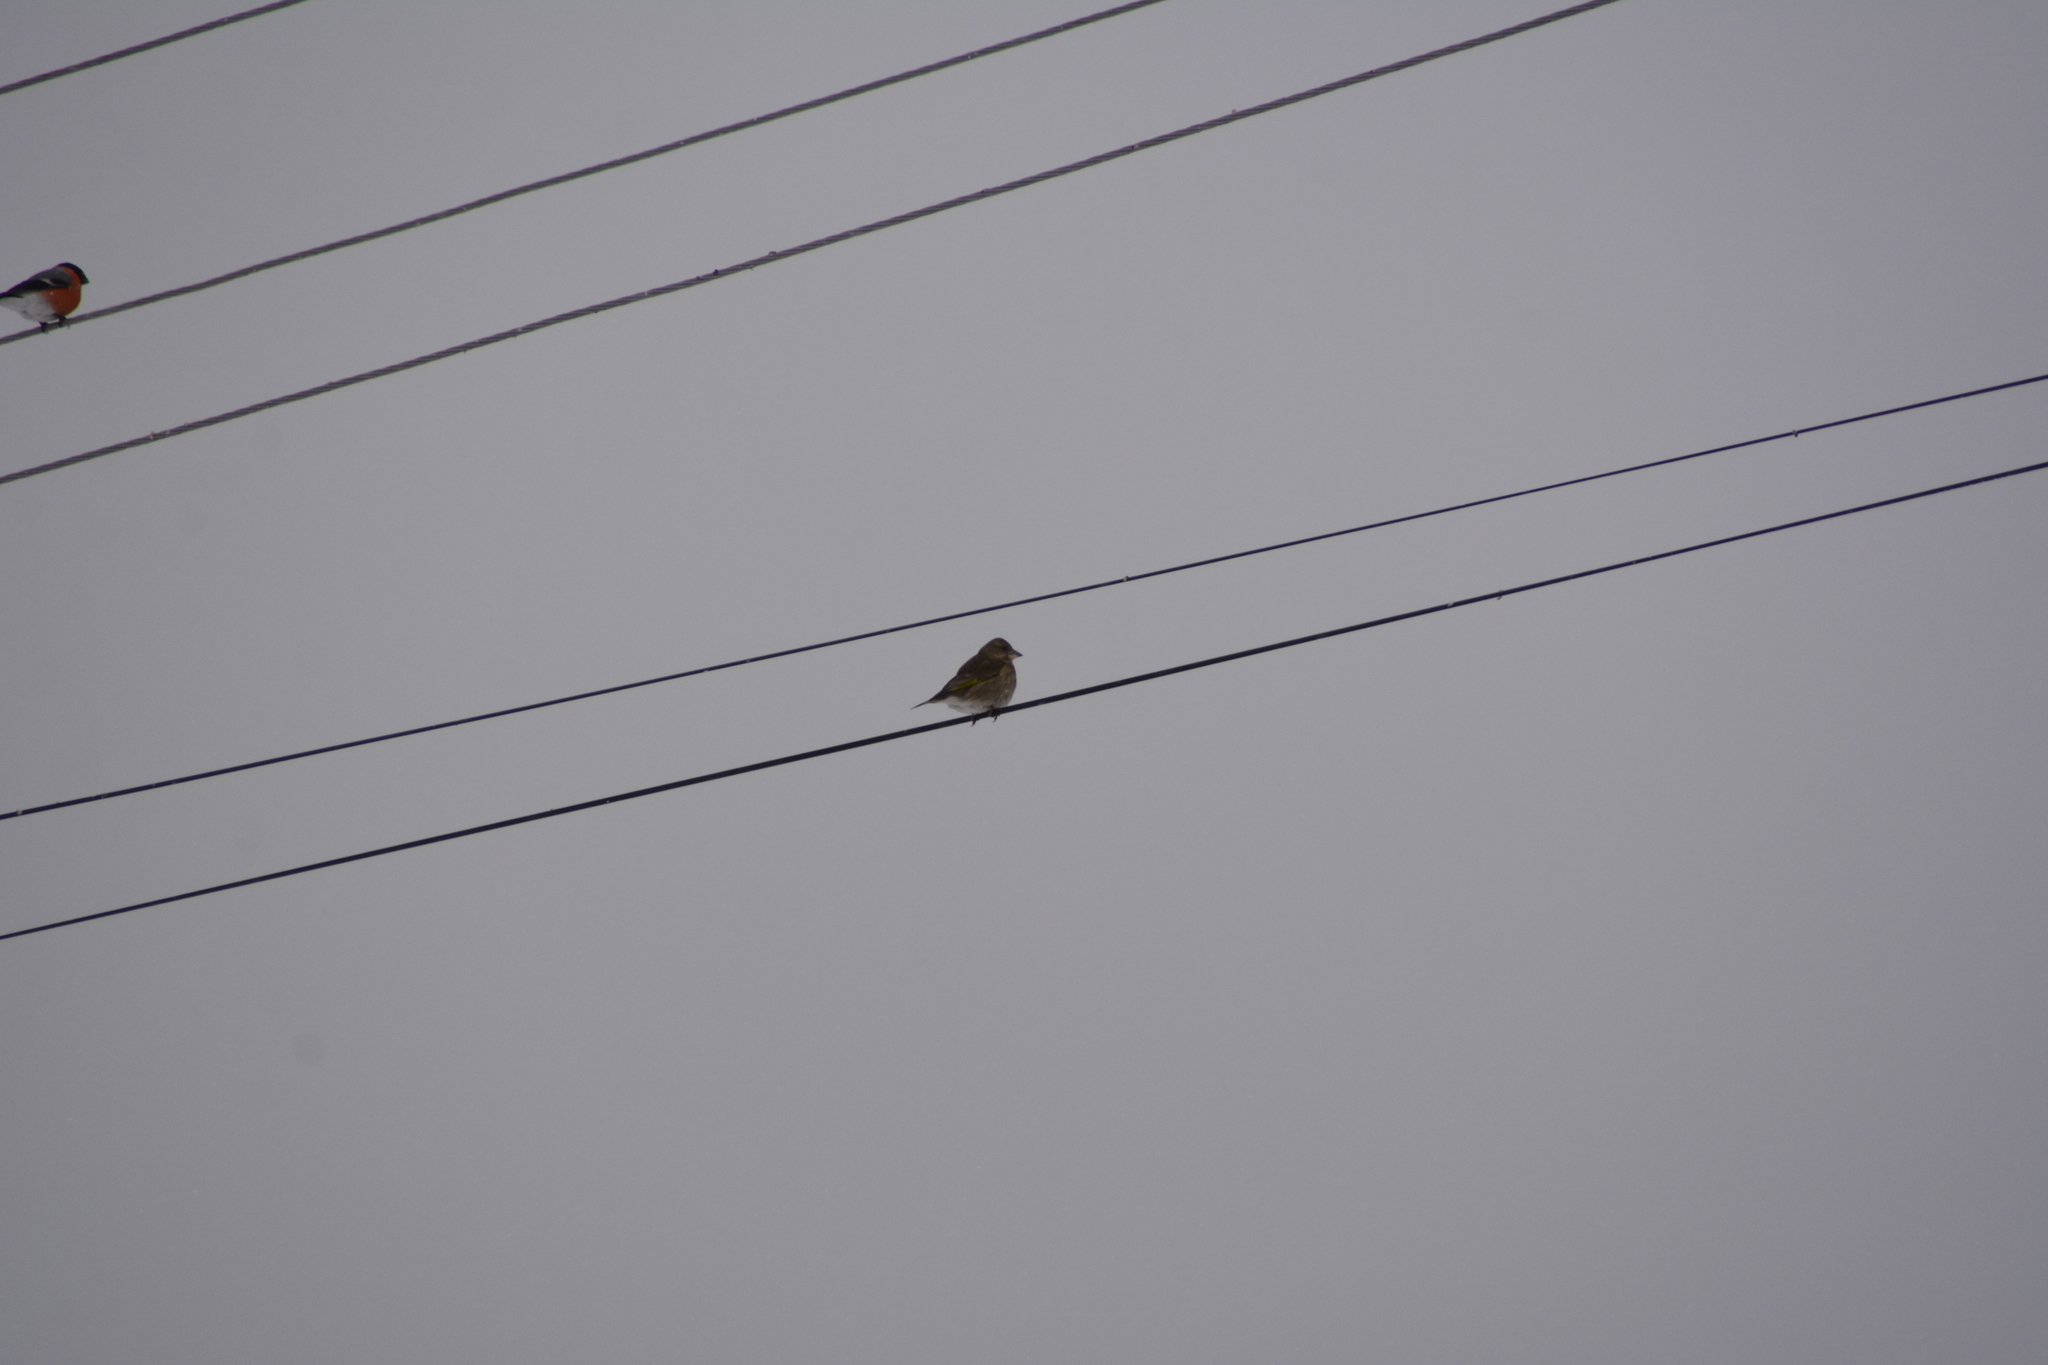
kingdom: Plantae
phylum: Tracheophyta
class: Liliopsida
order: Poales
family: Poaceae
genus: Chloris
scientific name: Chloris chloris
